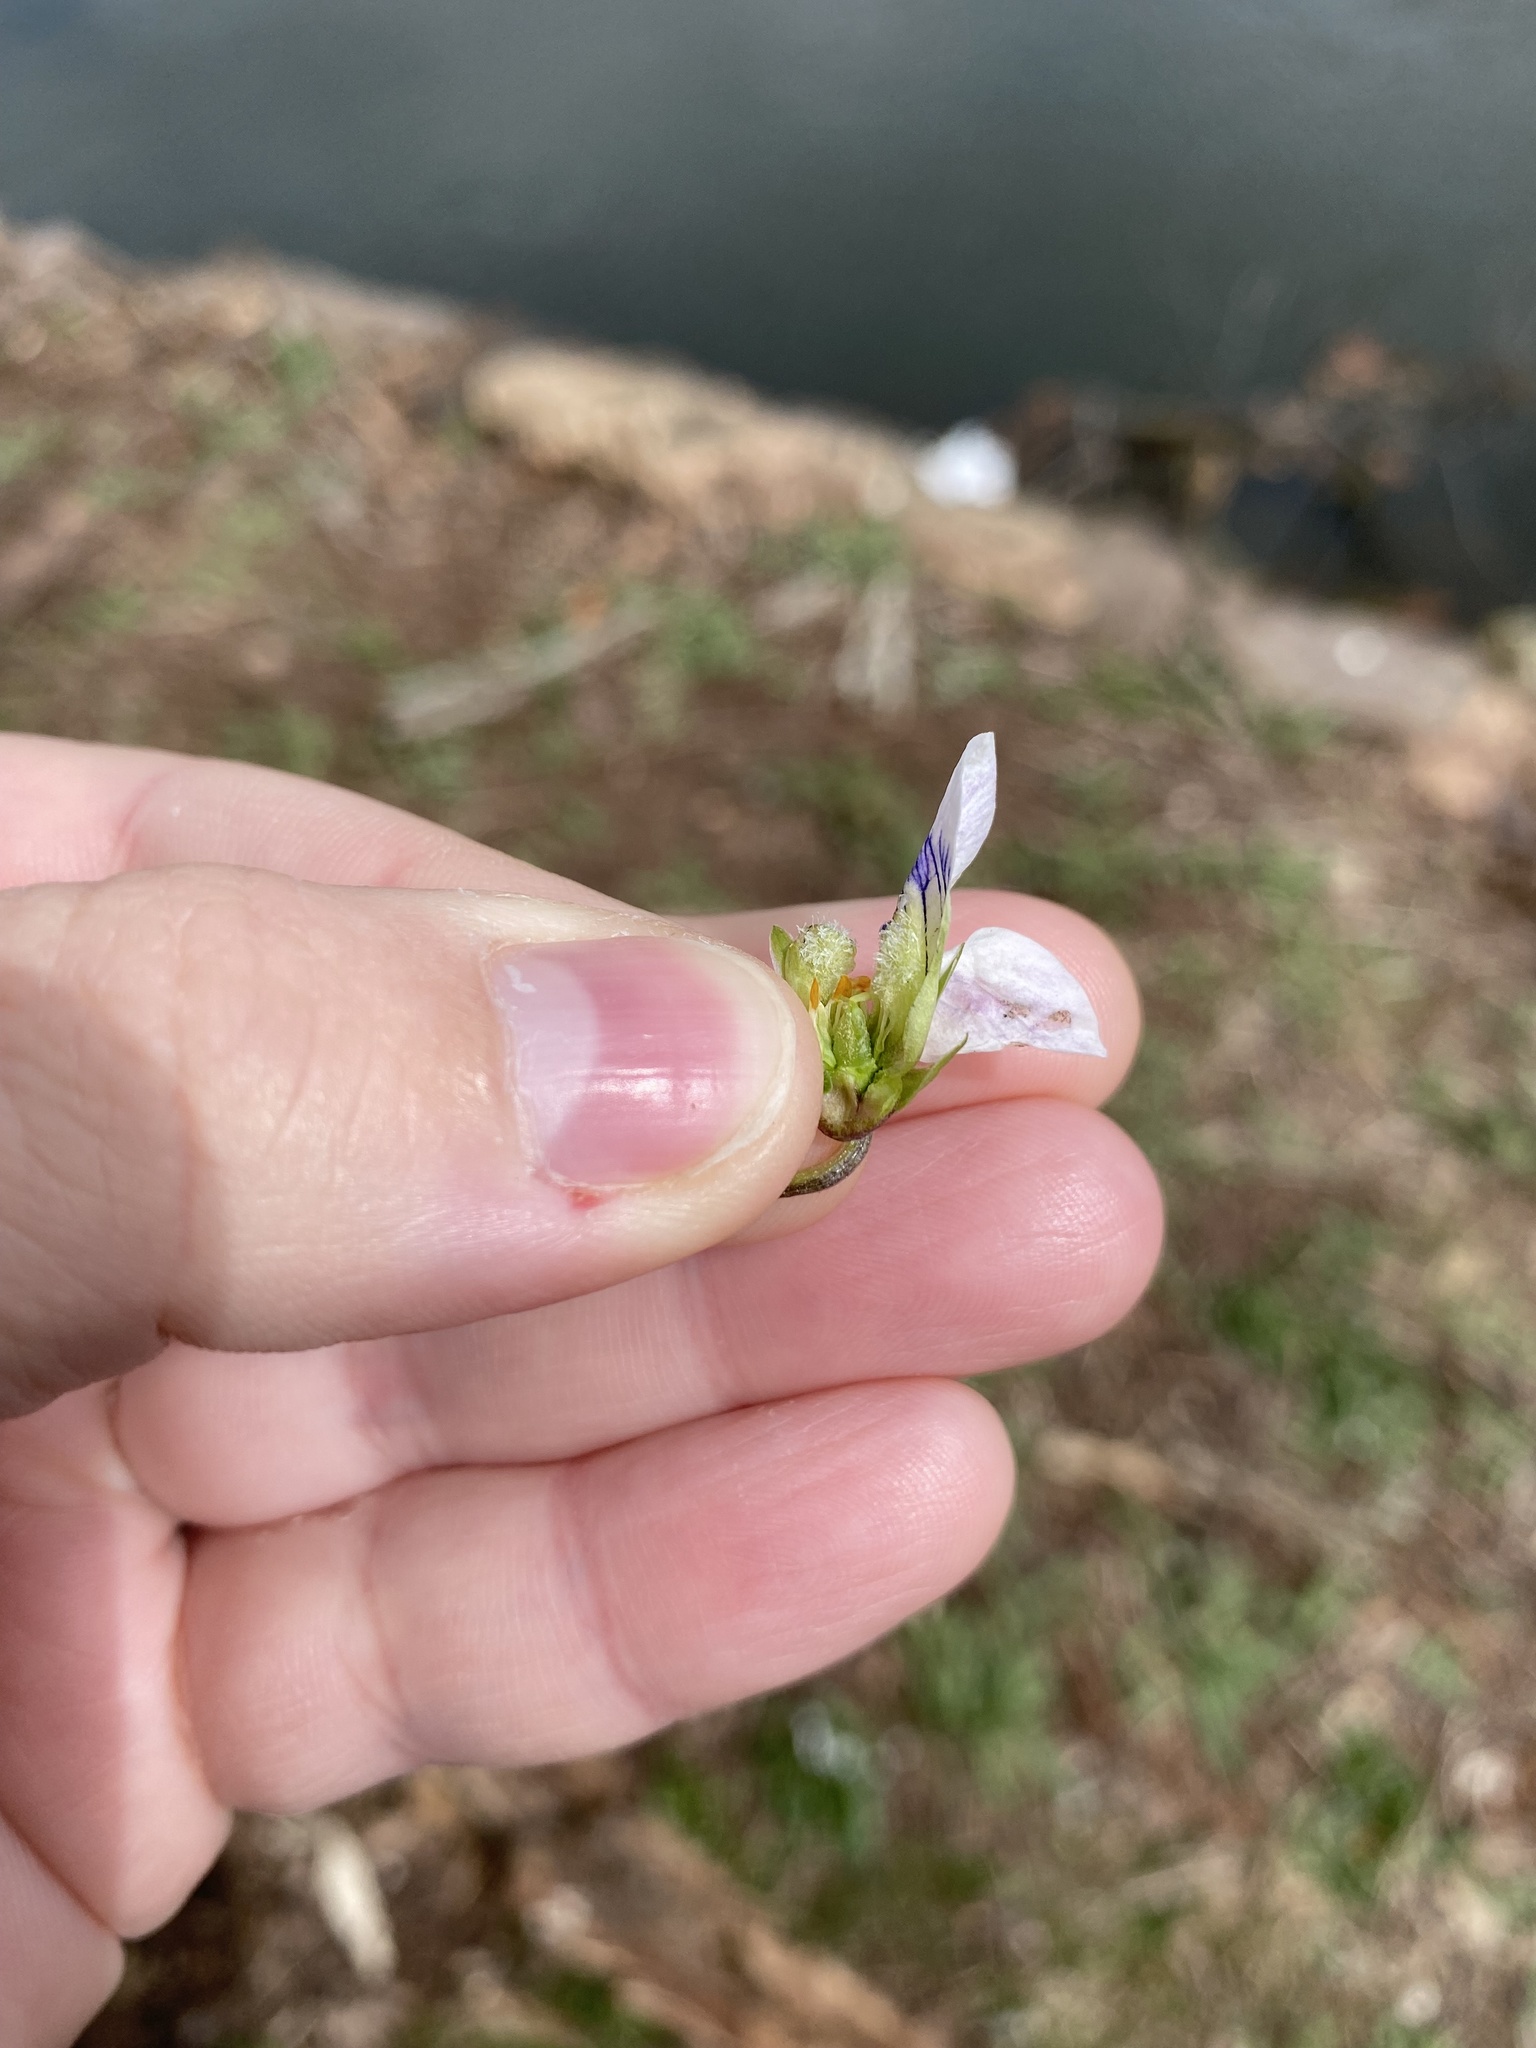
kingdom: Plantae
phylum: Tracheophyta
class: Magnoliopsida
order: Malpighiales
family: Violaceae
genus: Viola
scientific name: Viola sororia
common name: Dooryard violet
